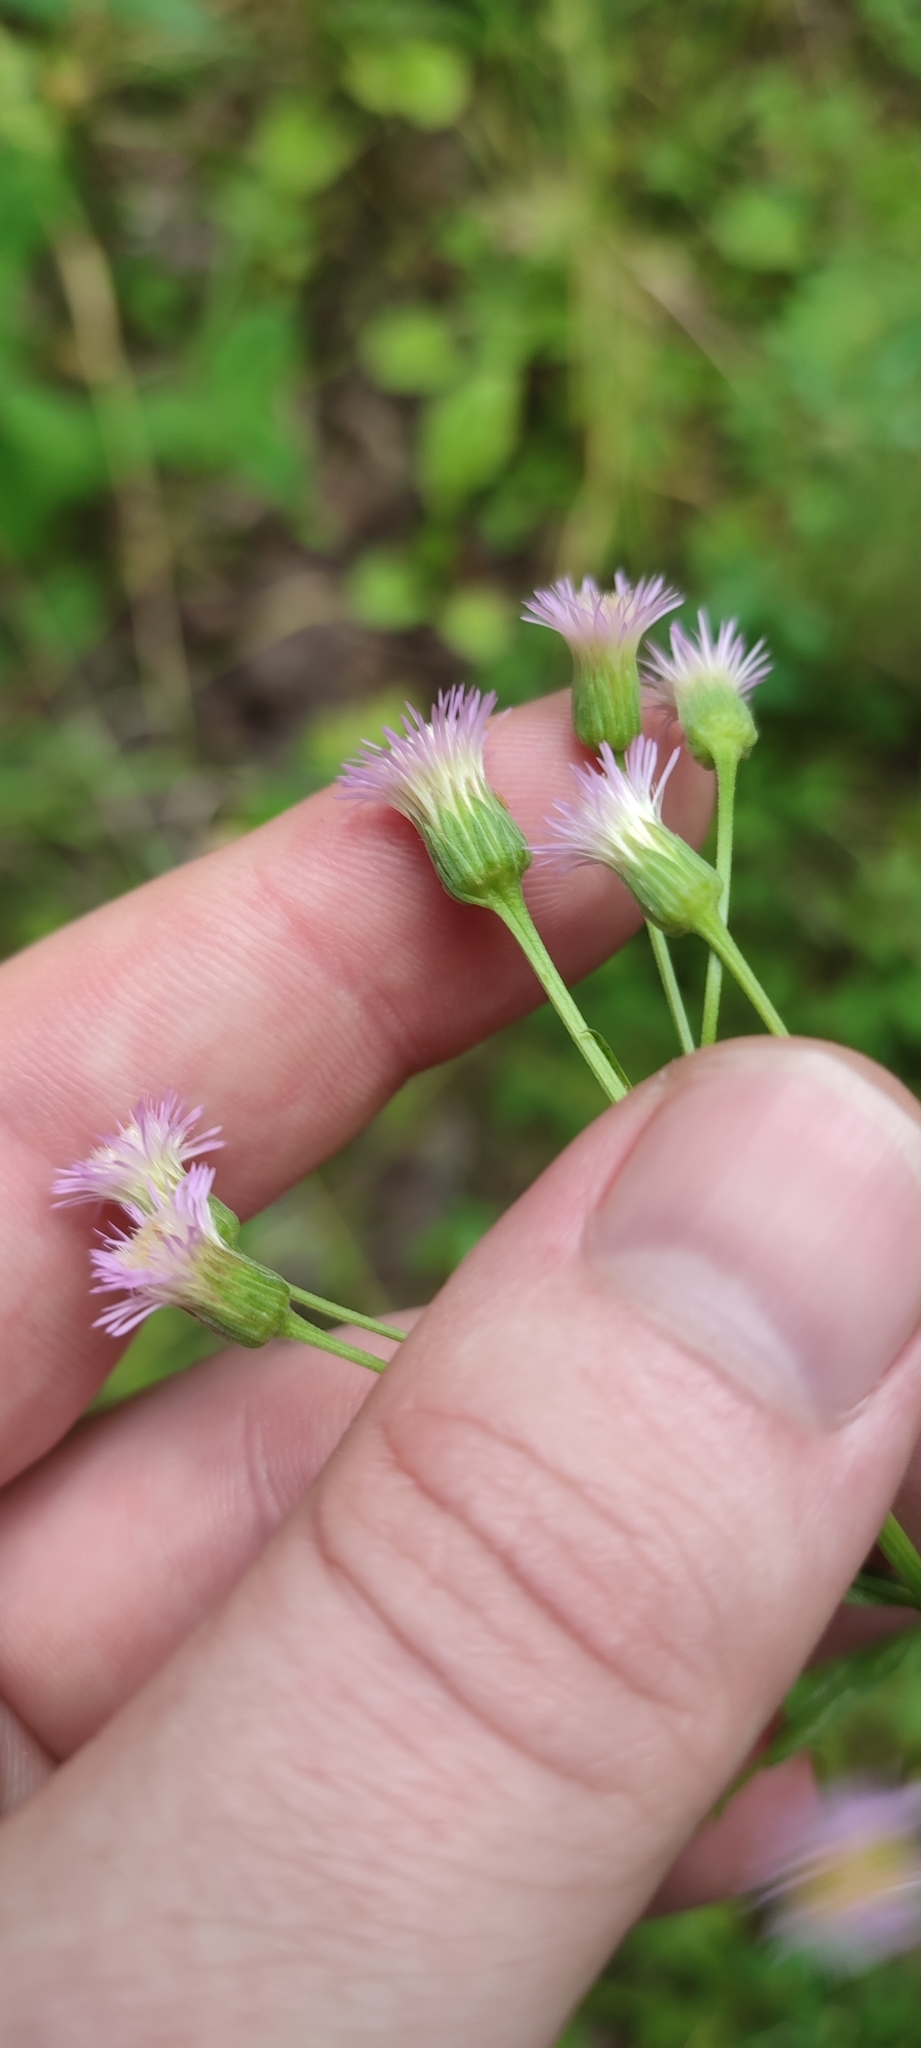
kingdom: Plantae
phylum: Tracheophyta
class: Magnoliopsida
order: Asterales
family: Asteraceae
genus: Erigeron
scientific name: Erigeron acris
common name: Blue fleabane
